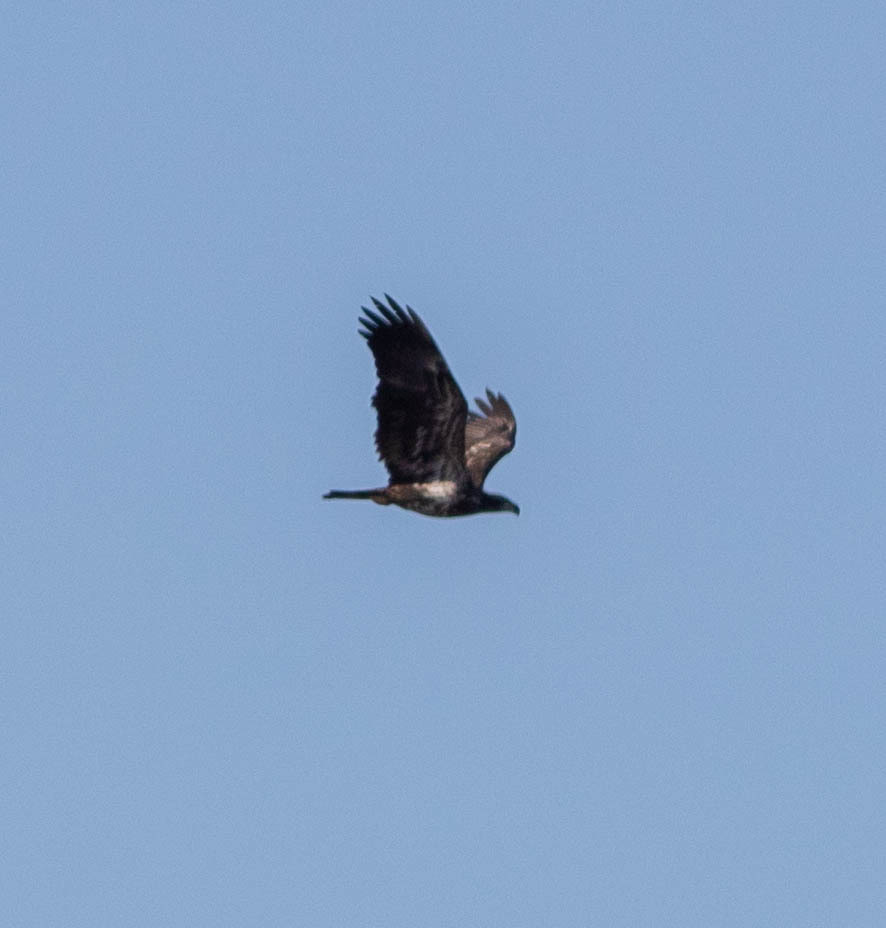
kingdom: Animalia
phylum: Chordata
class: Aves
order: Accipitriformes
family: Accipitridae
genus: Haliaeetus
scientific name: Haliaeetus leucocephalus
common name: Bald eagle
